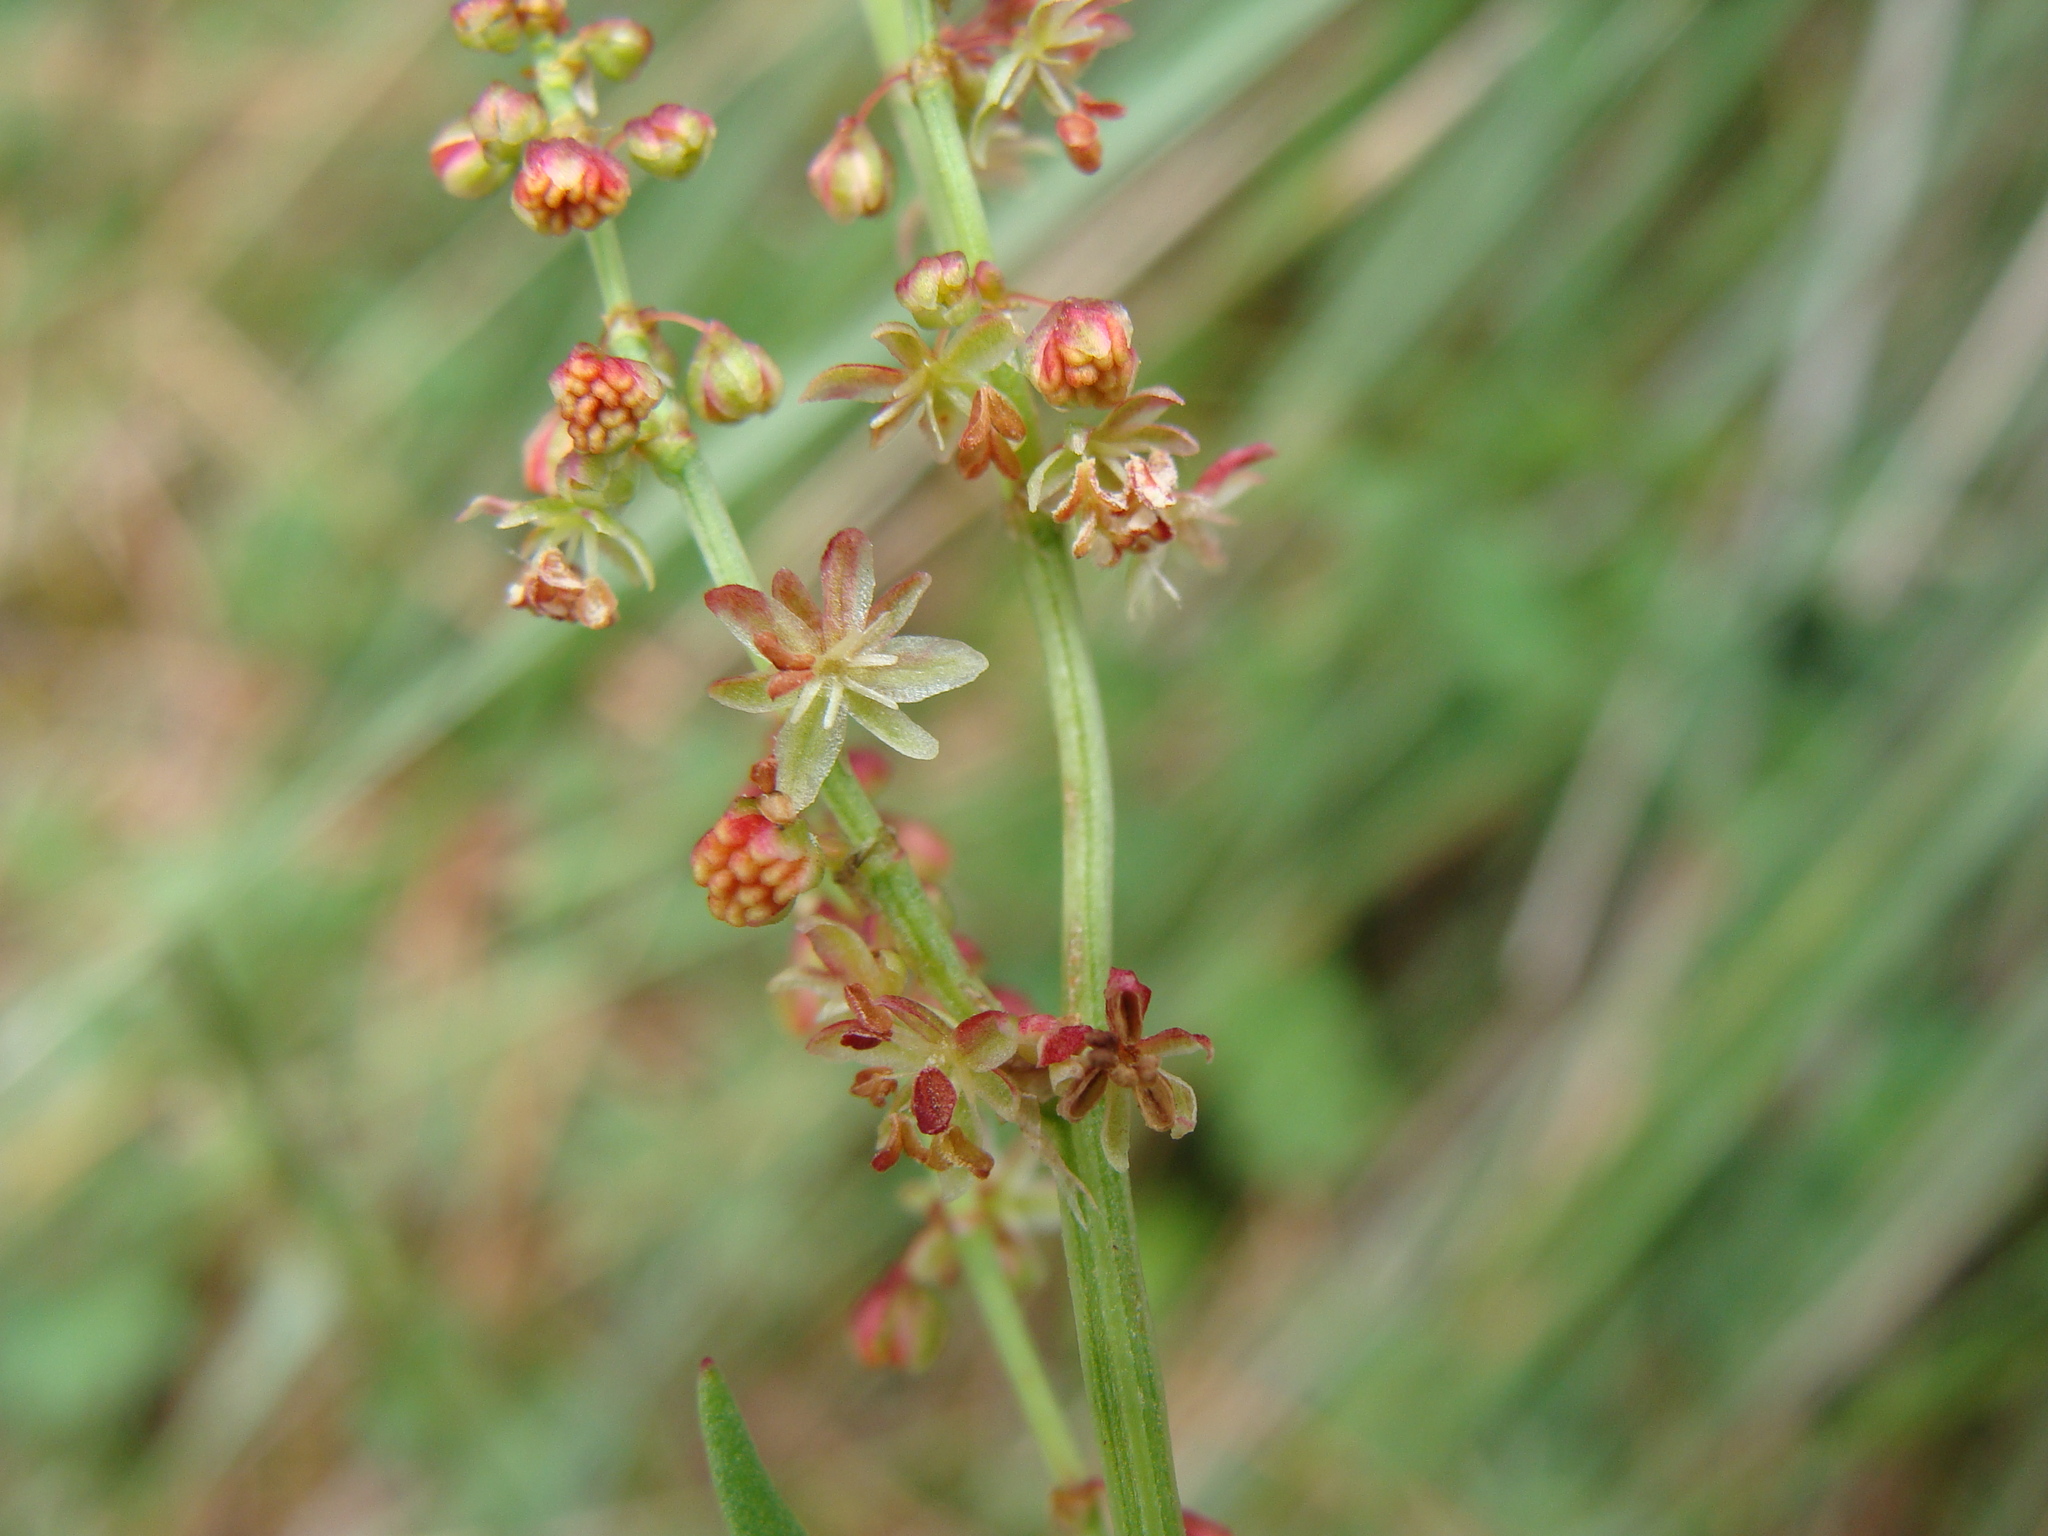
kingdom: Plantae
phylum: Tracheophyta
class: Magnoliopsida
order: Caryophyllales
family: Polygonaceae
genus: Rumex
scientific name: Rumex acetosella
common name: Common sheep sorrel
